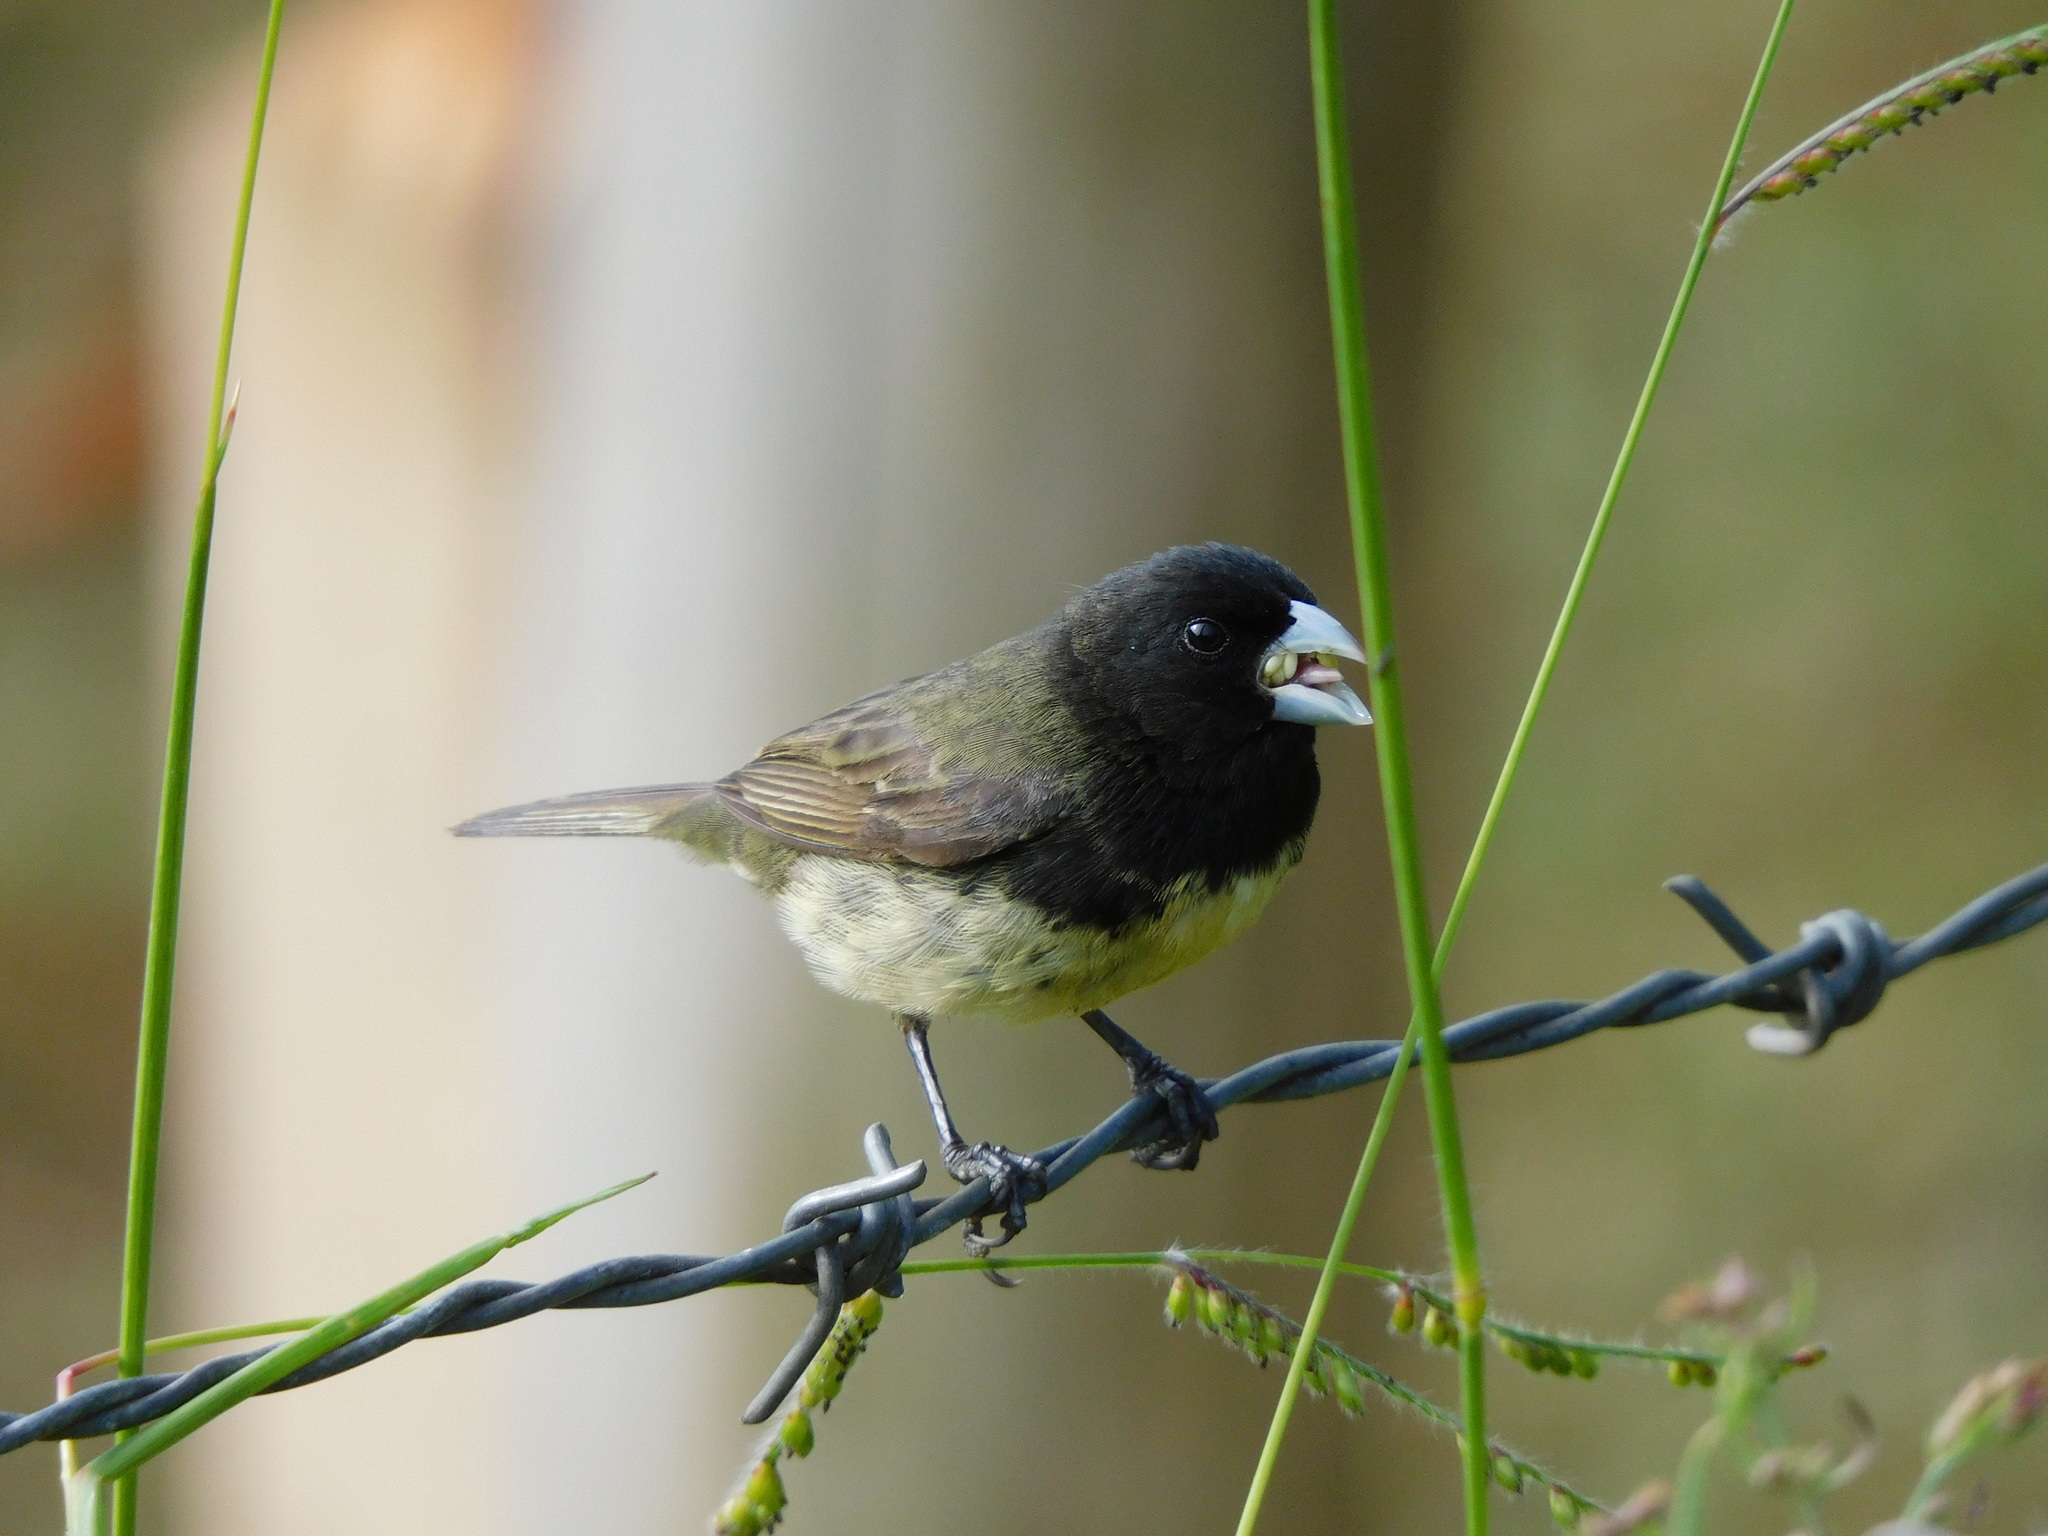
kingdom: Animalia
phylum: Chordata
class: Aves
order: Passeriformes
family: Thraupidae
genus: Sporophila
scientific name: Sporophila nigricollis
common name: Yellow-bellied seedeater
